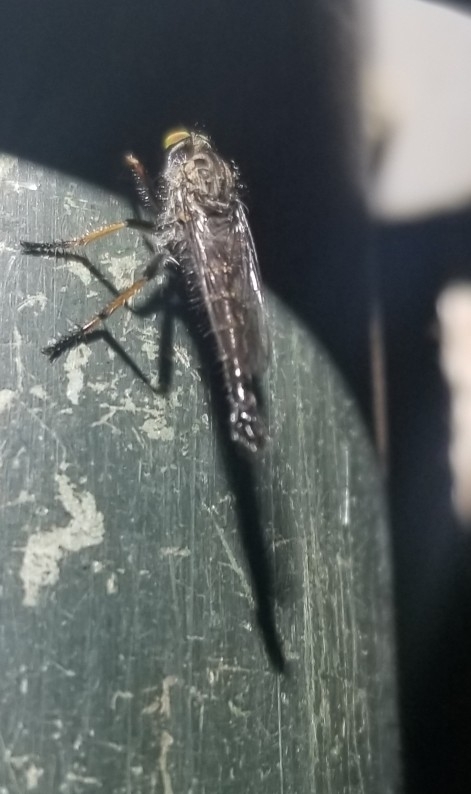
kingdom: Animalia
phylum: Arthropoda
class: Insecta
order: Diptera
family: Asilidae
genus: Asilus
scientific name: Asilus flavofemoratus
